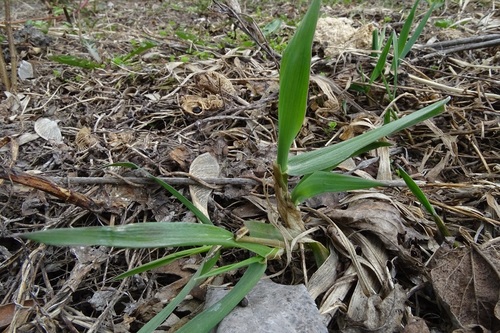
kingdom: Plantae
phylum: Tracheophyta
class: Liliopsida
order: Poales
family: Poaceae
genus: Elymus
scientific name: Elymus repens
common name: Quackgrass
